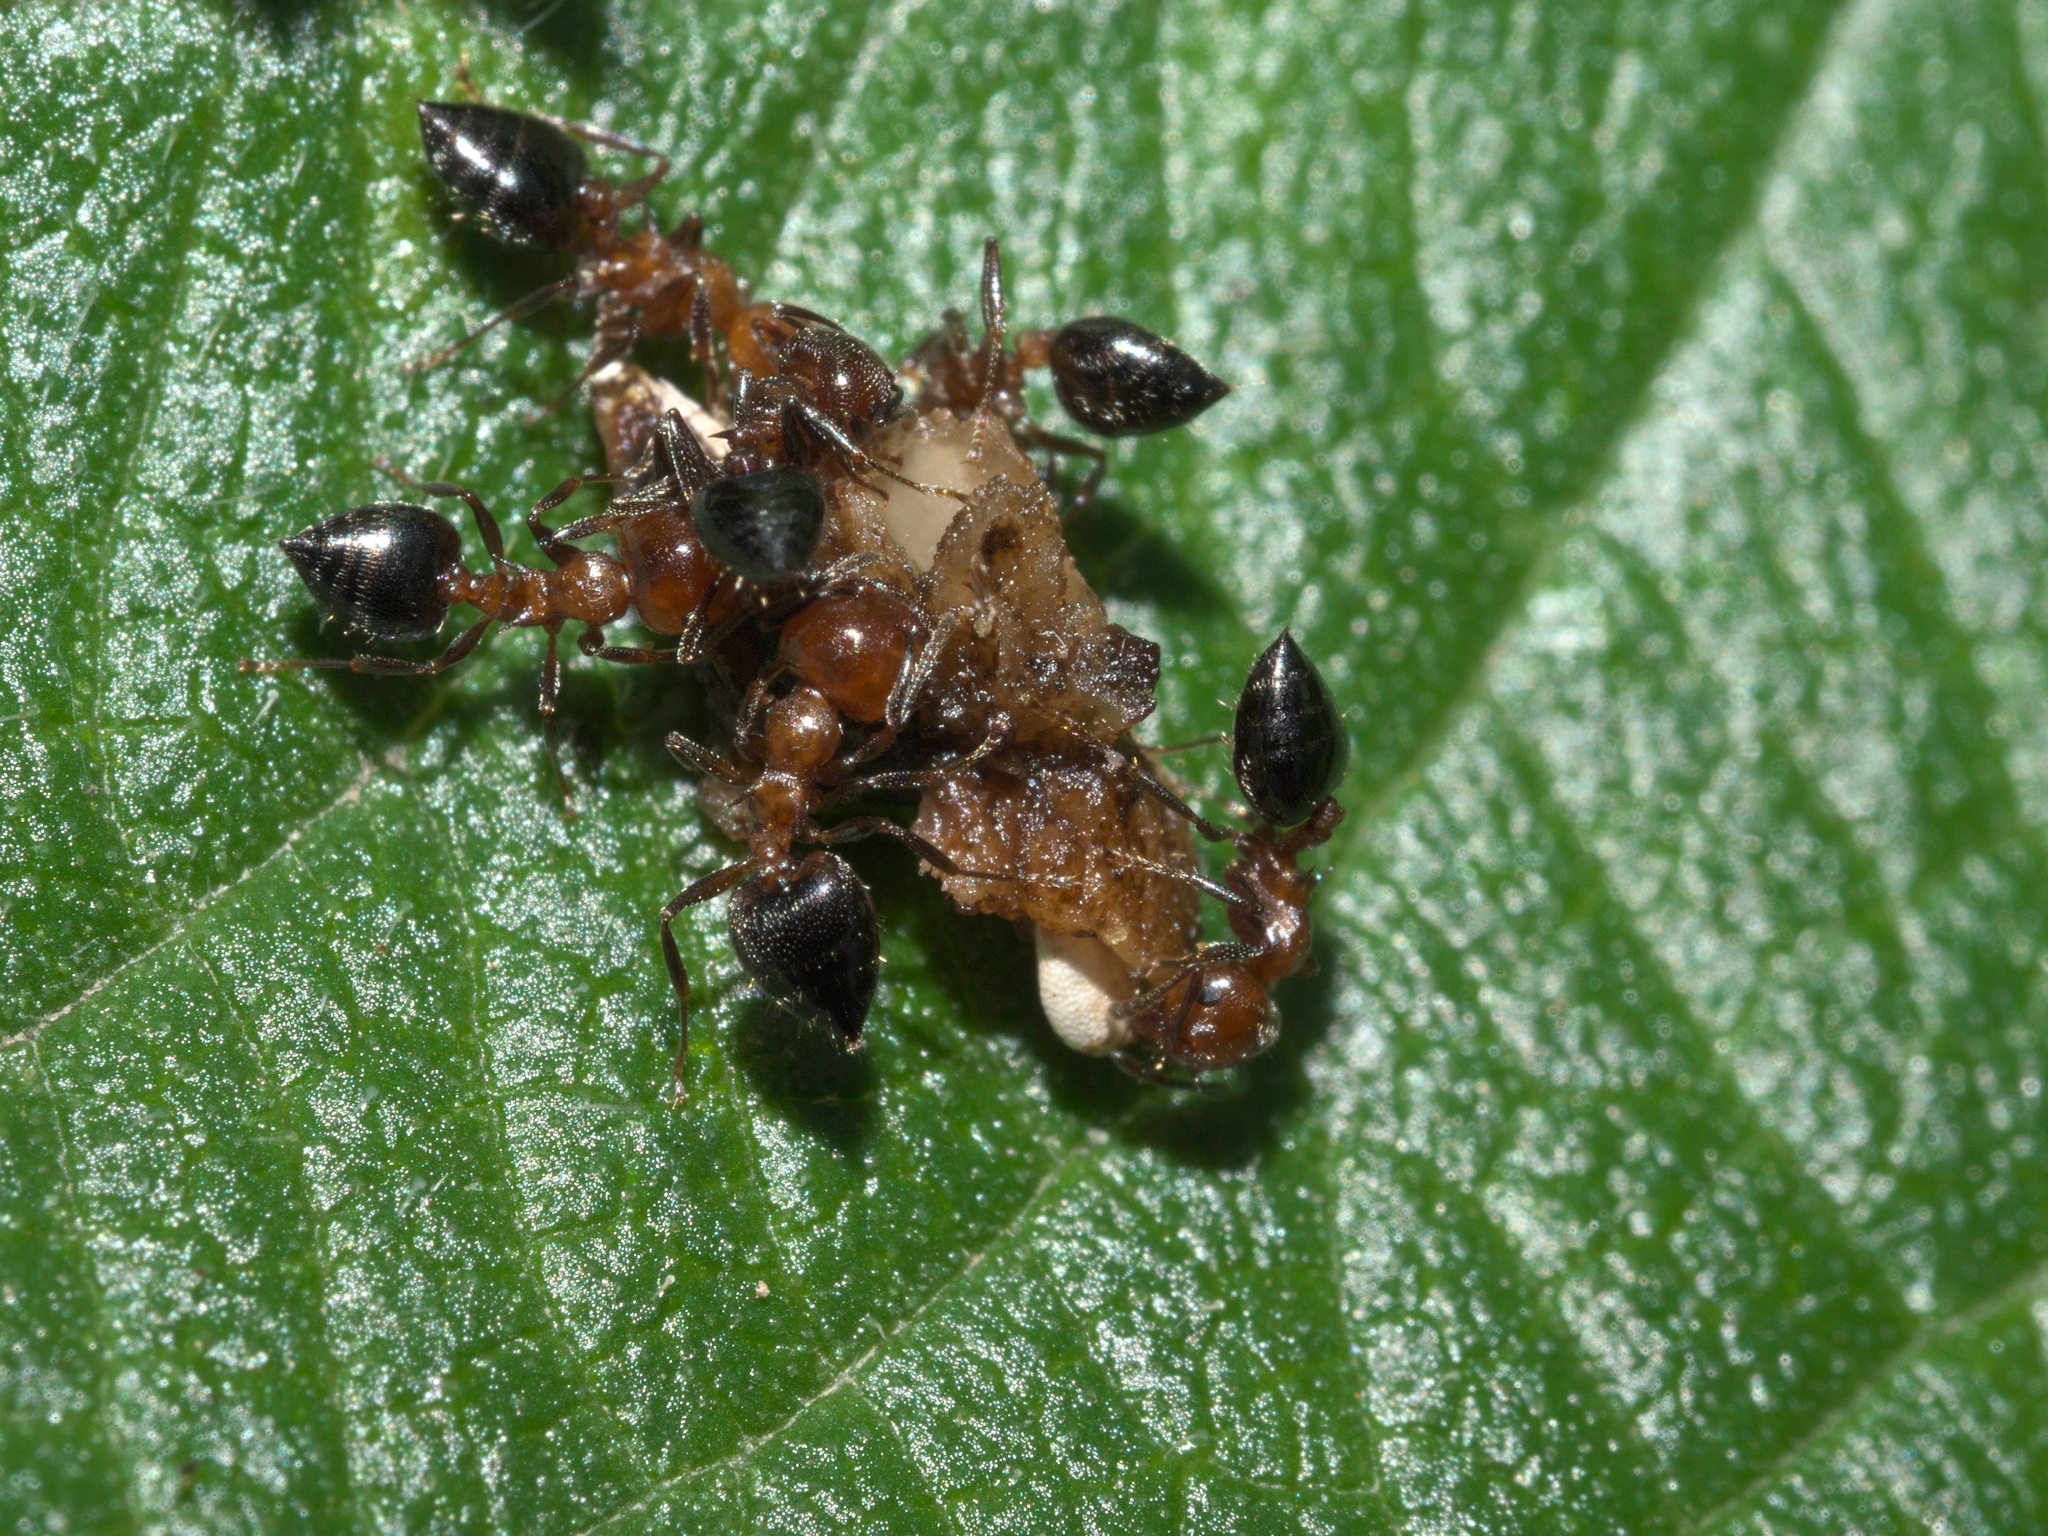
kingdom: Animalia
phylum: Arthropoda
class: Insecta
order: Hymenoptera
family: Formicidae
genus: Crematogaster
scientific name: Crematogaster laeviuscula
